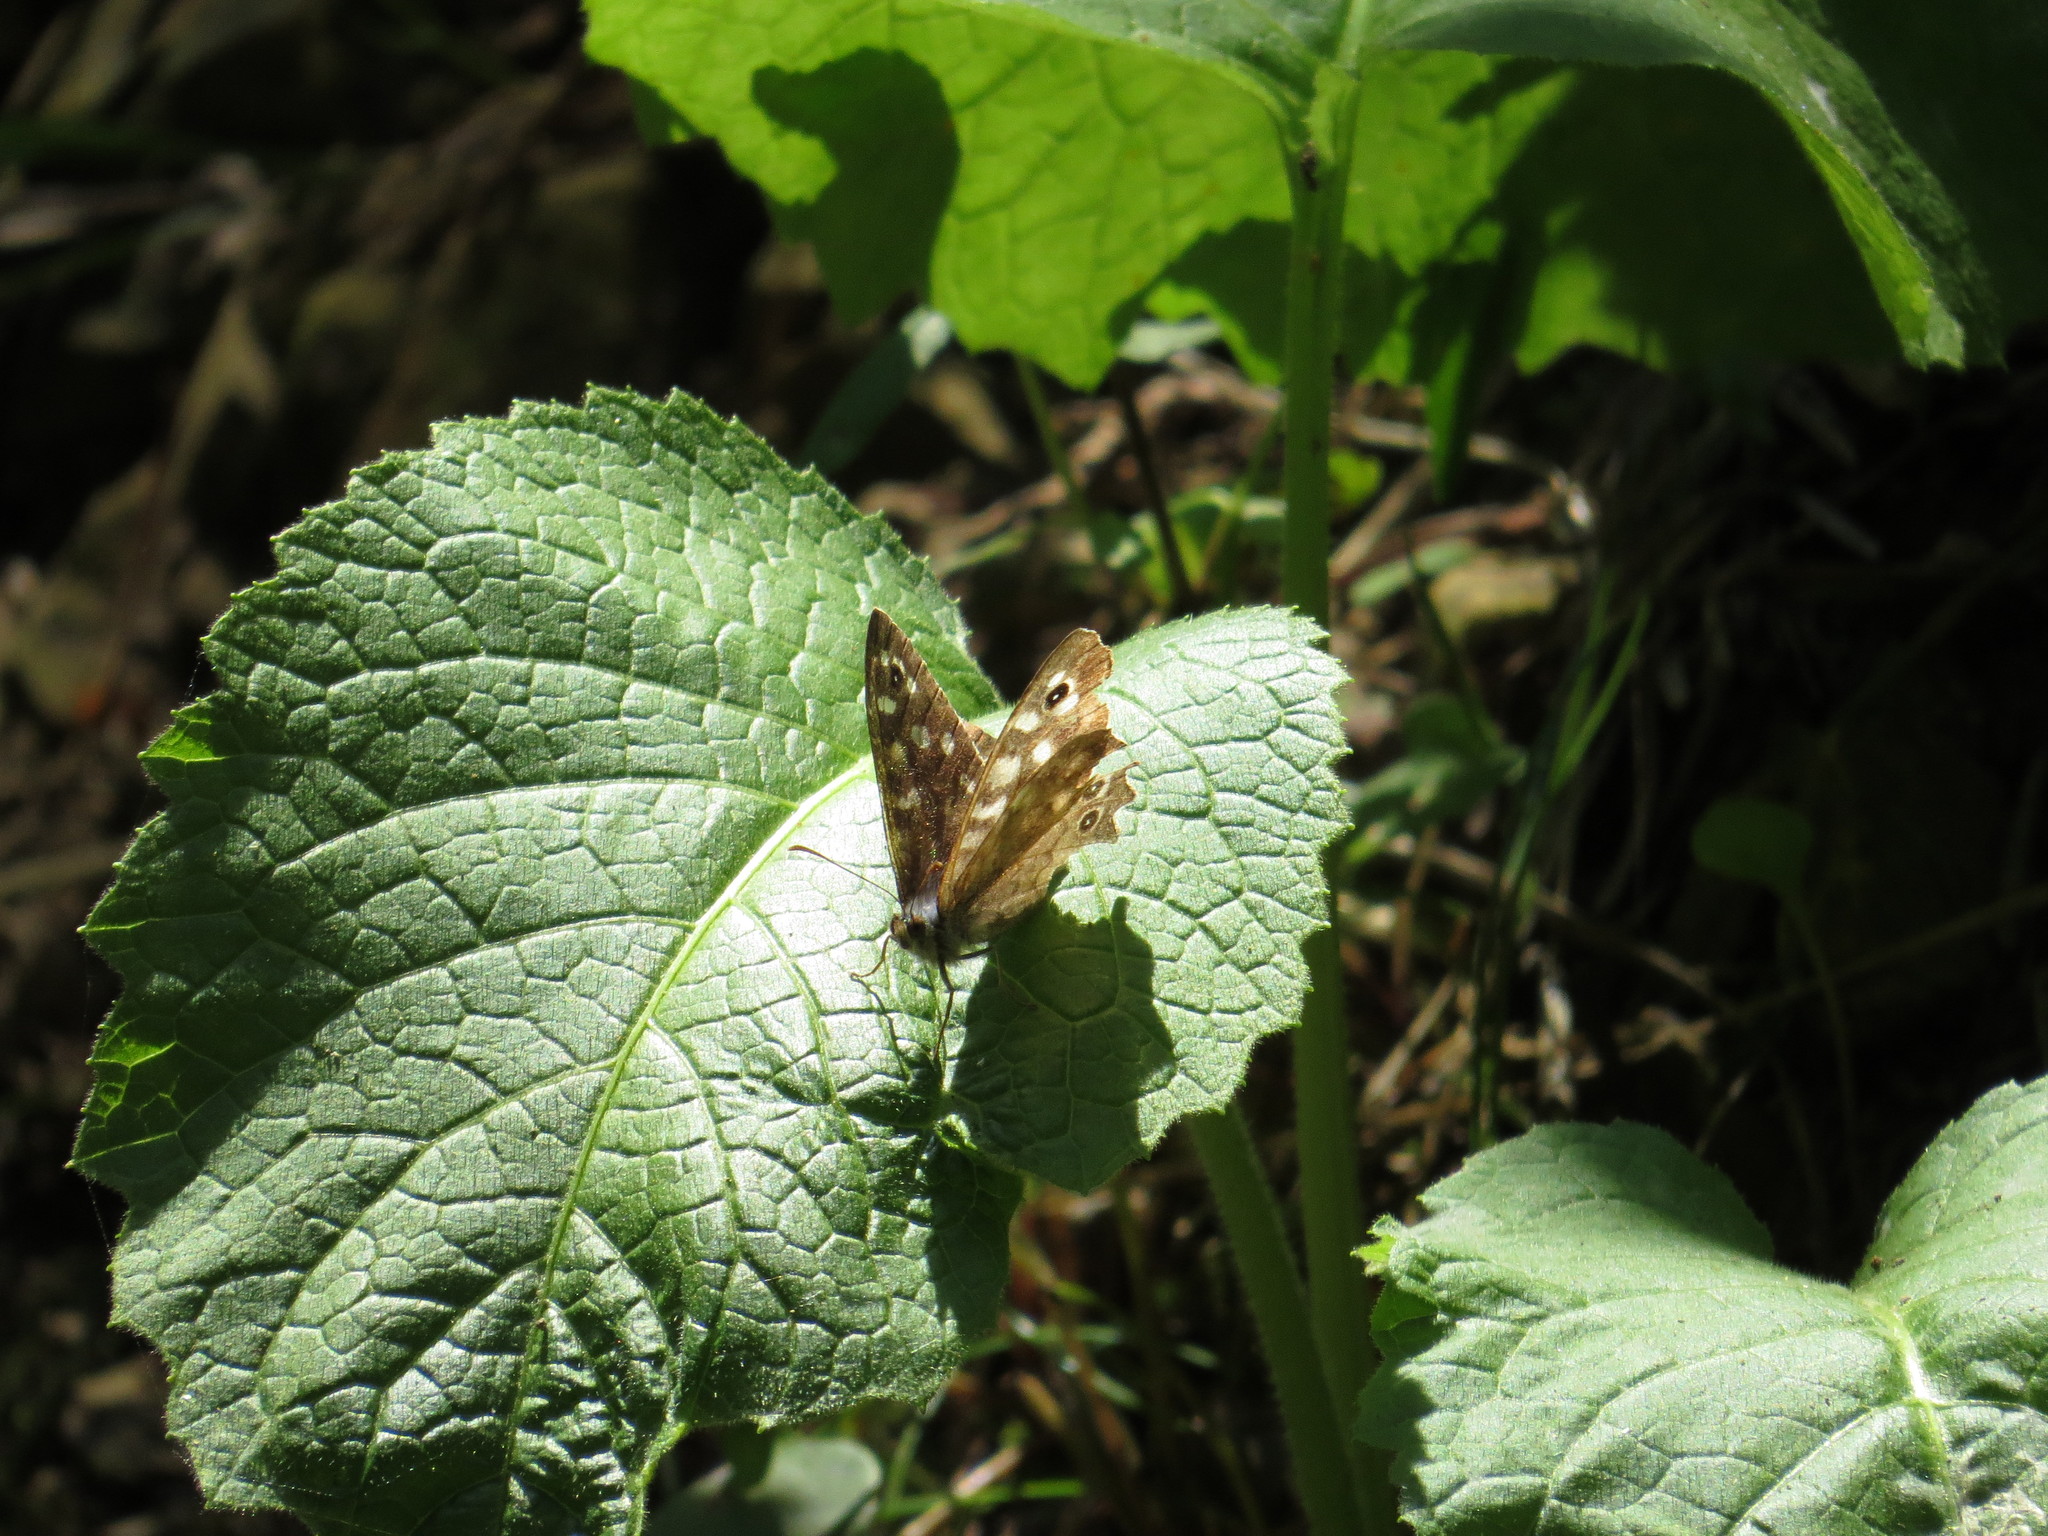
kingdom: Animalia
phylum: Arthropoda
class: Insecta
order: Lepidoptera
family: Nymphalidae
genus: Pararge
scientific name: Pararge aegeria
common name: Speckled wood
